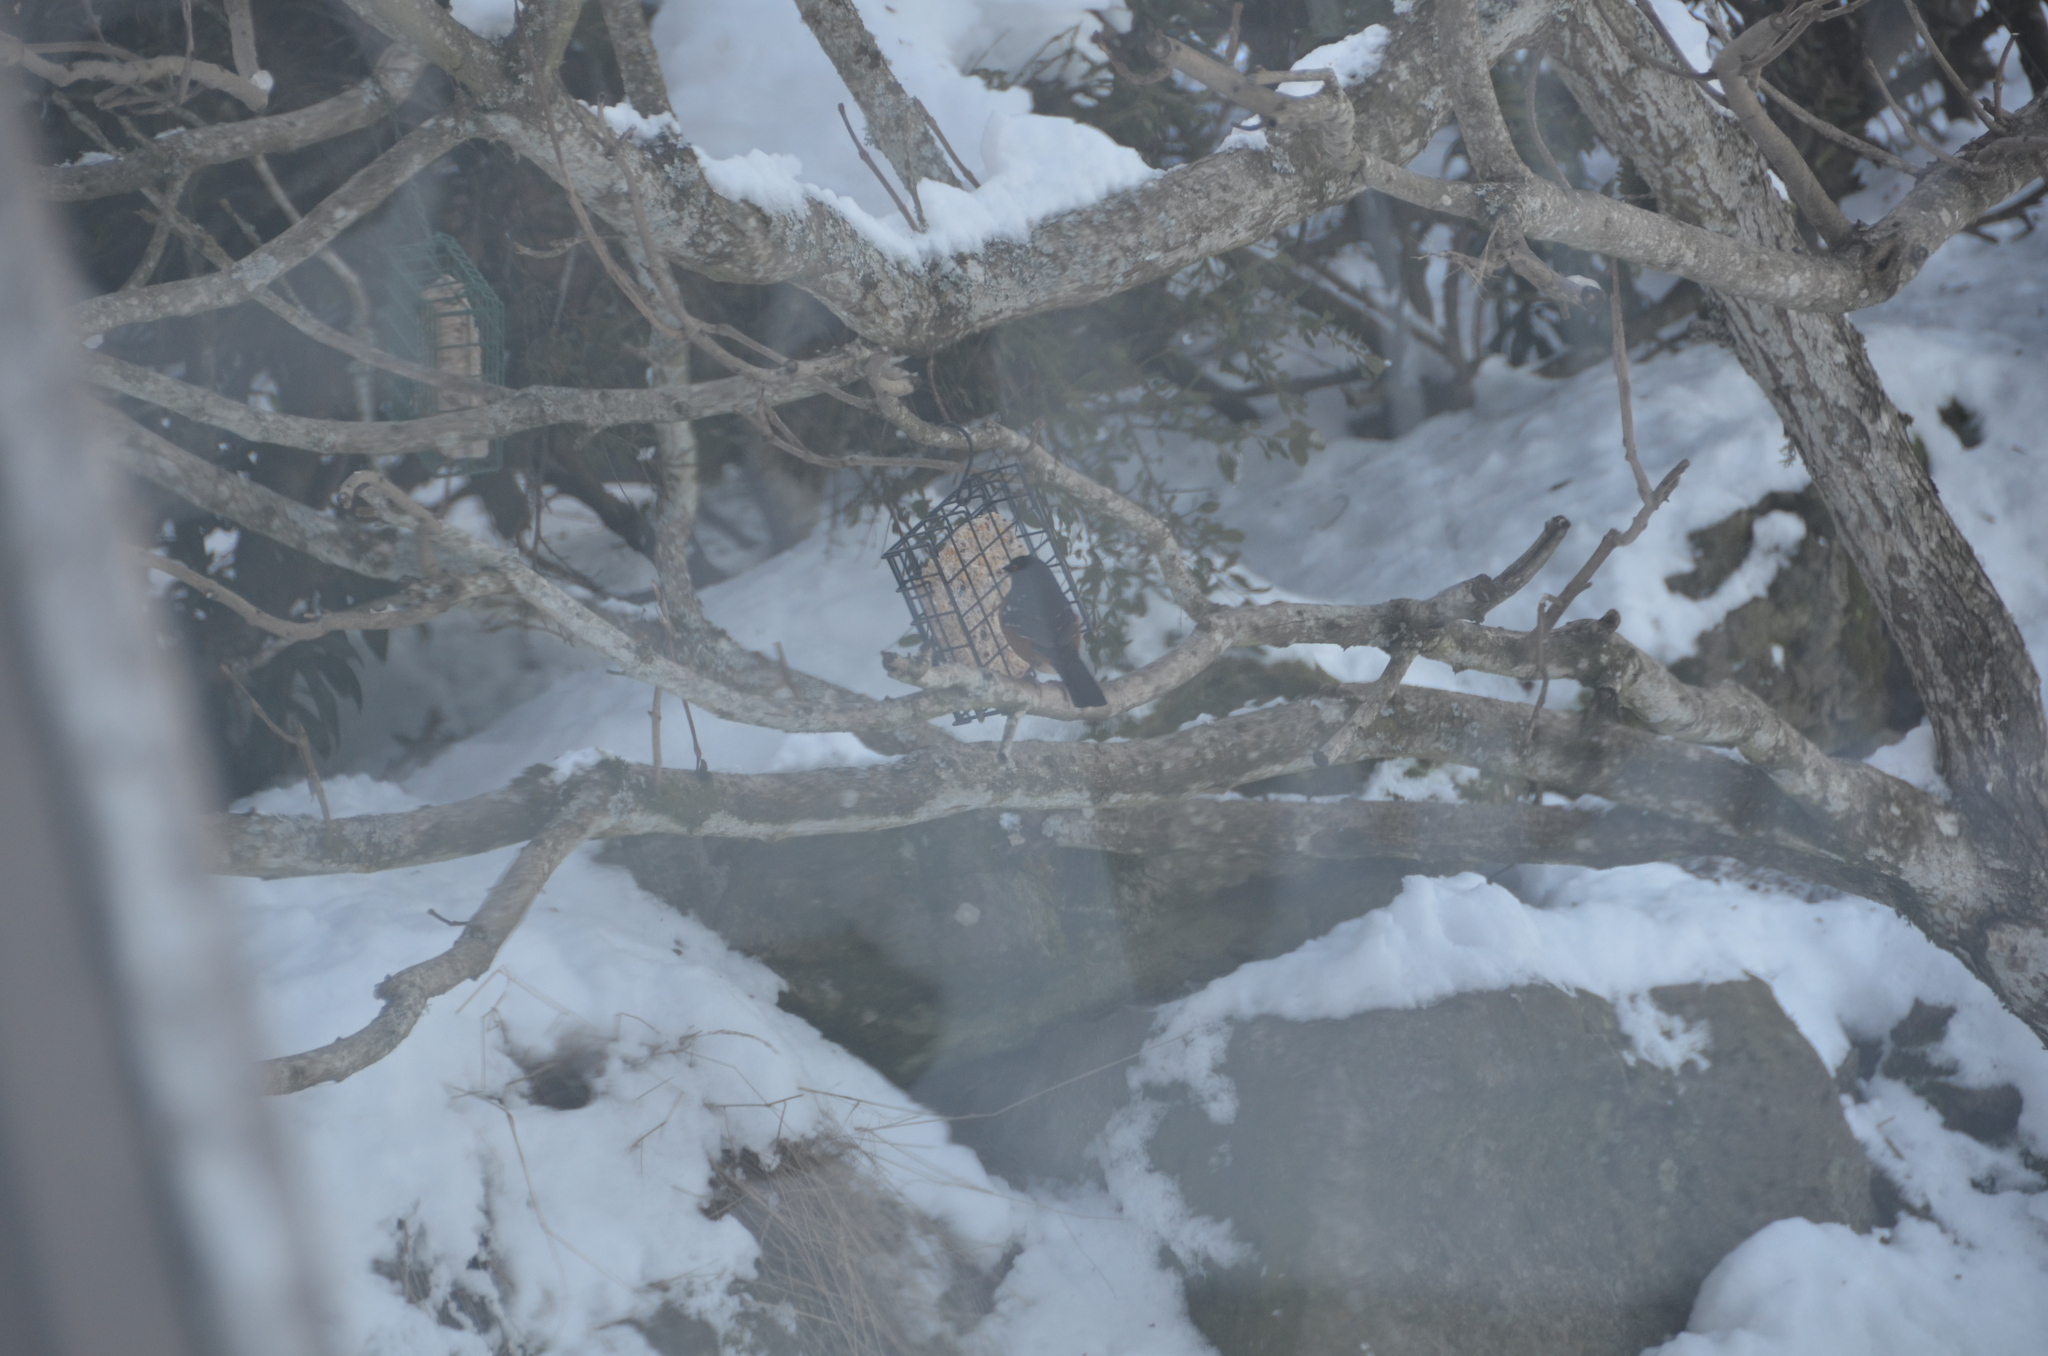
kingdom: Animalia
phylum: Chordata
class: Aves
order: Passeriformes
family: Passerellidae
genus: Pipilo
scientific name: Pipilo maculatus
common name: Spotted towhee
